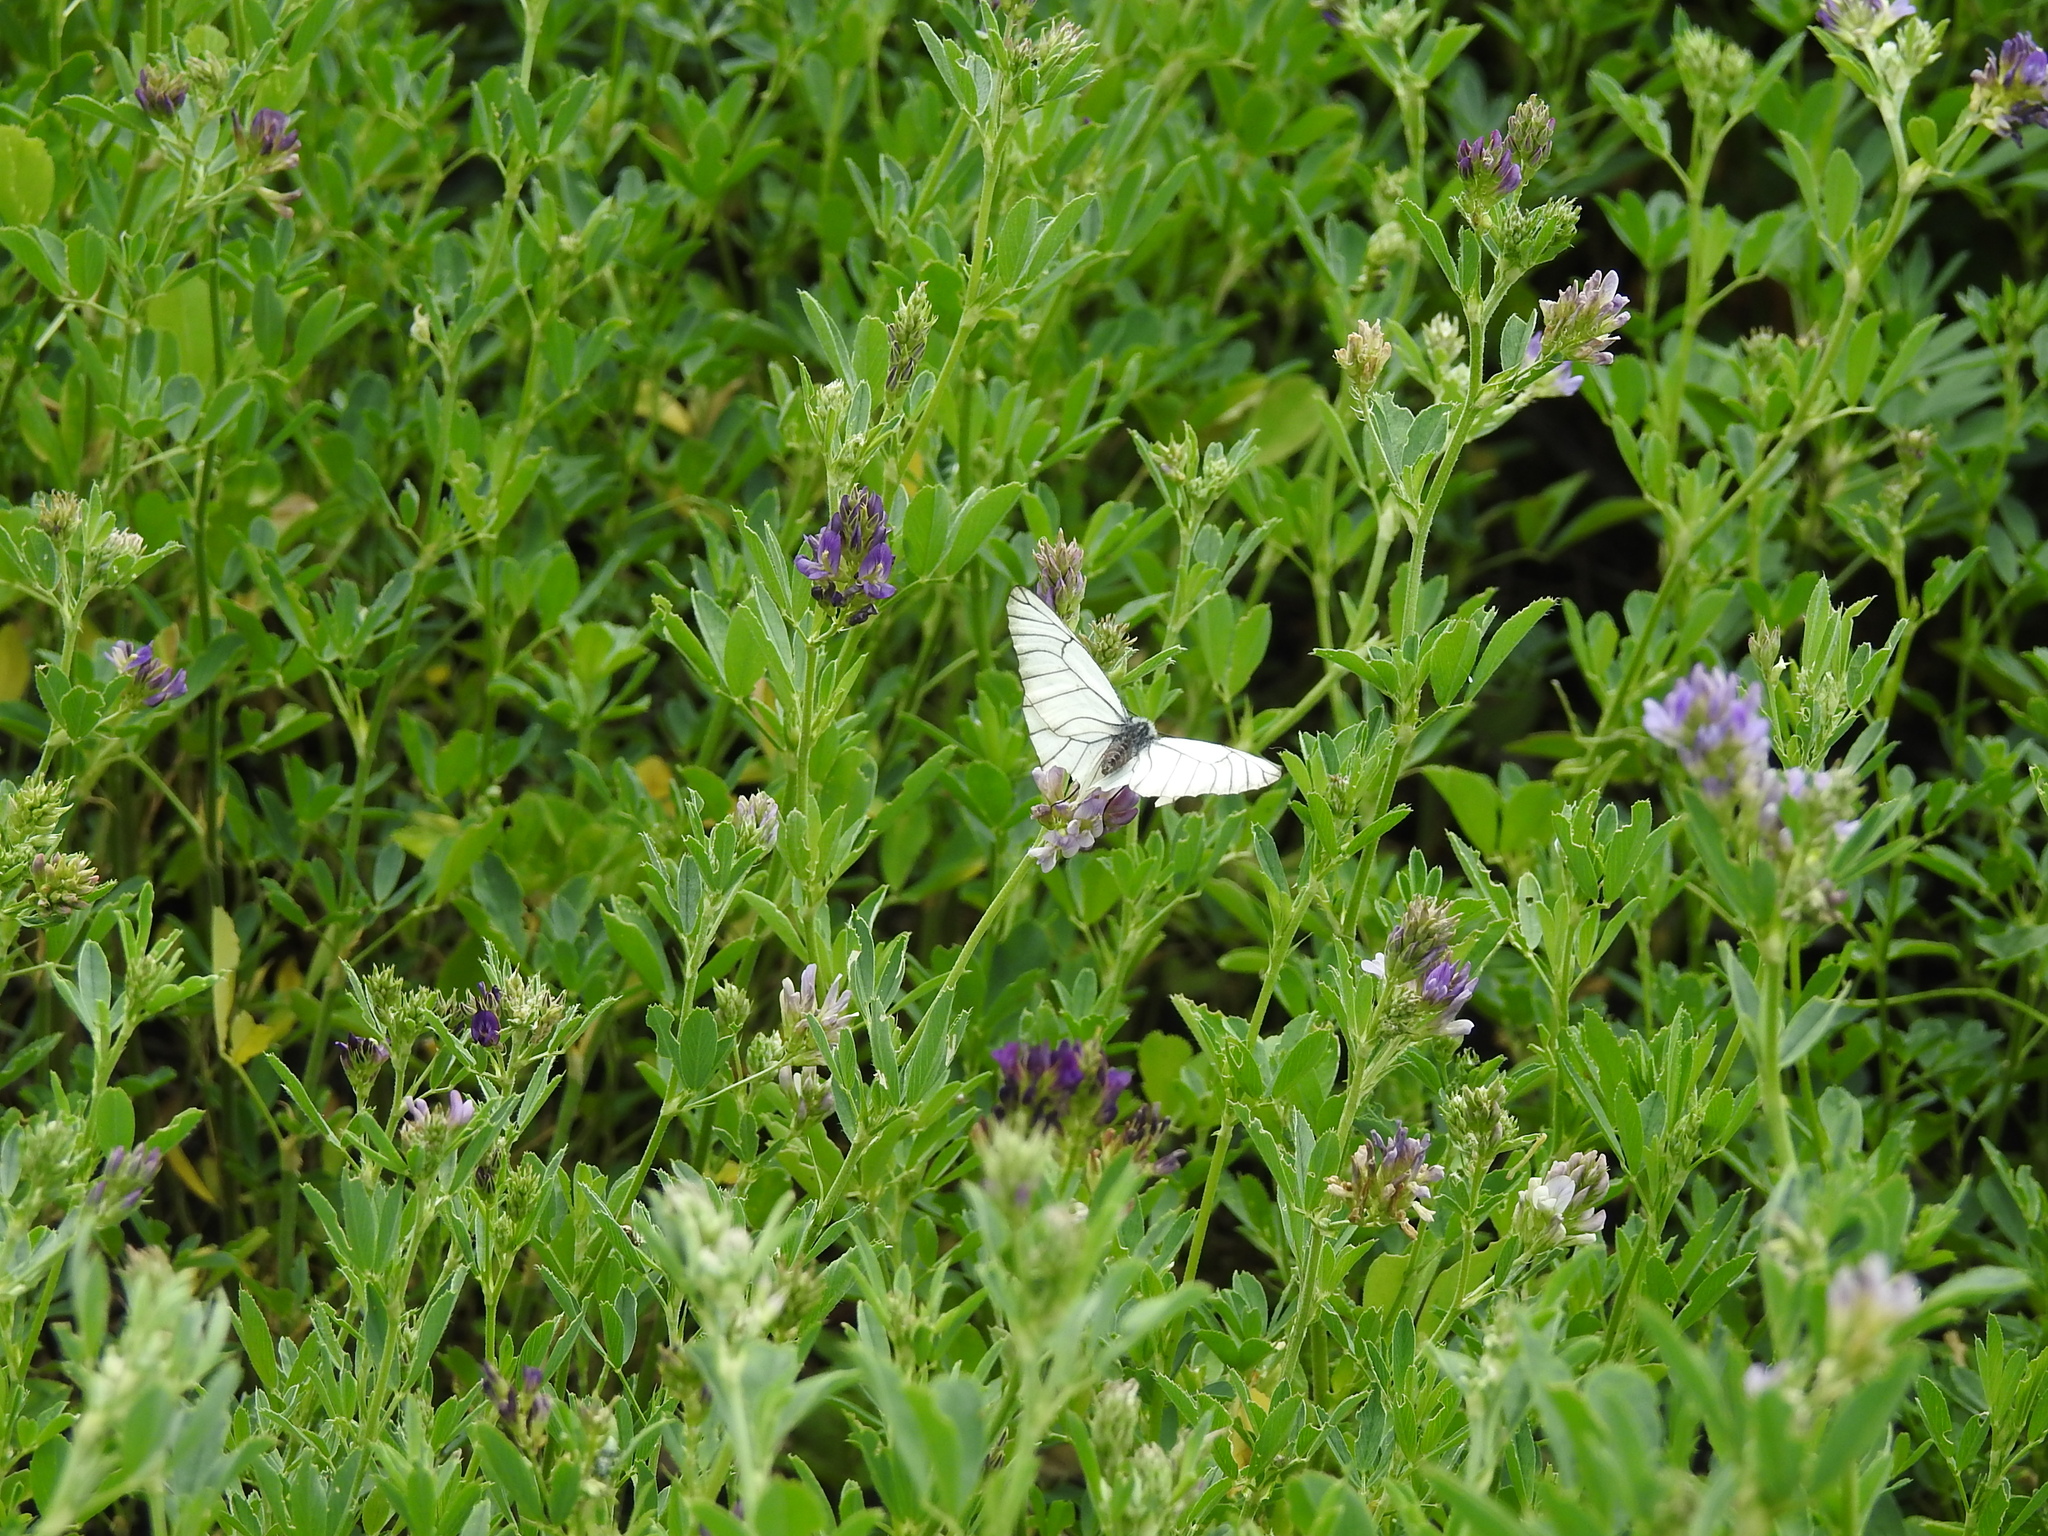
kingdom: Animalia
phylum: Arthropoda
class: Insecta
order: Lepidoptera
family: Pieridae
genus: Aporia
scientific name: Aporia crataegi
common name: Black-veined white
